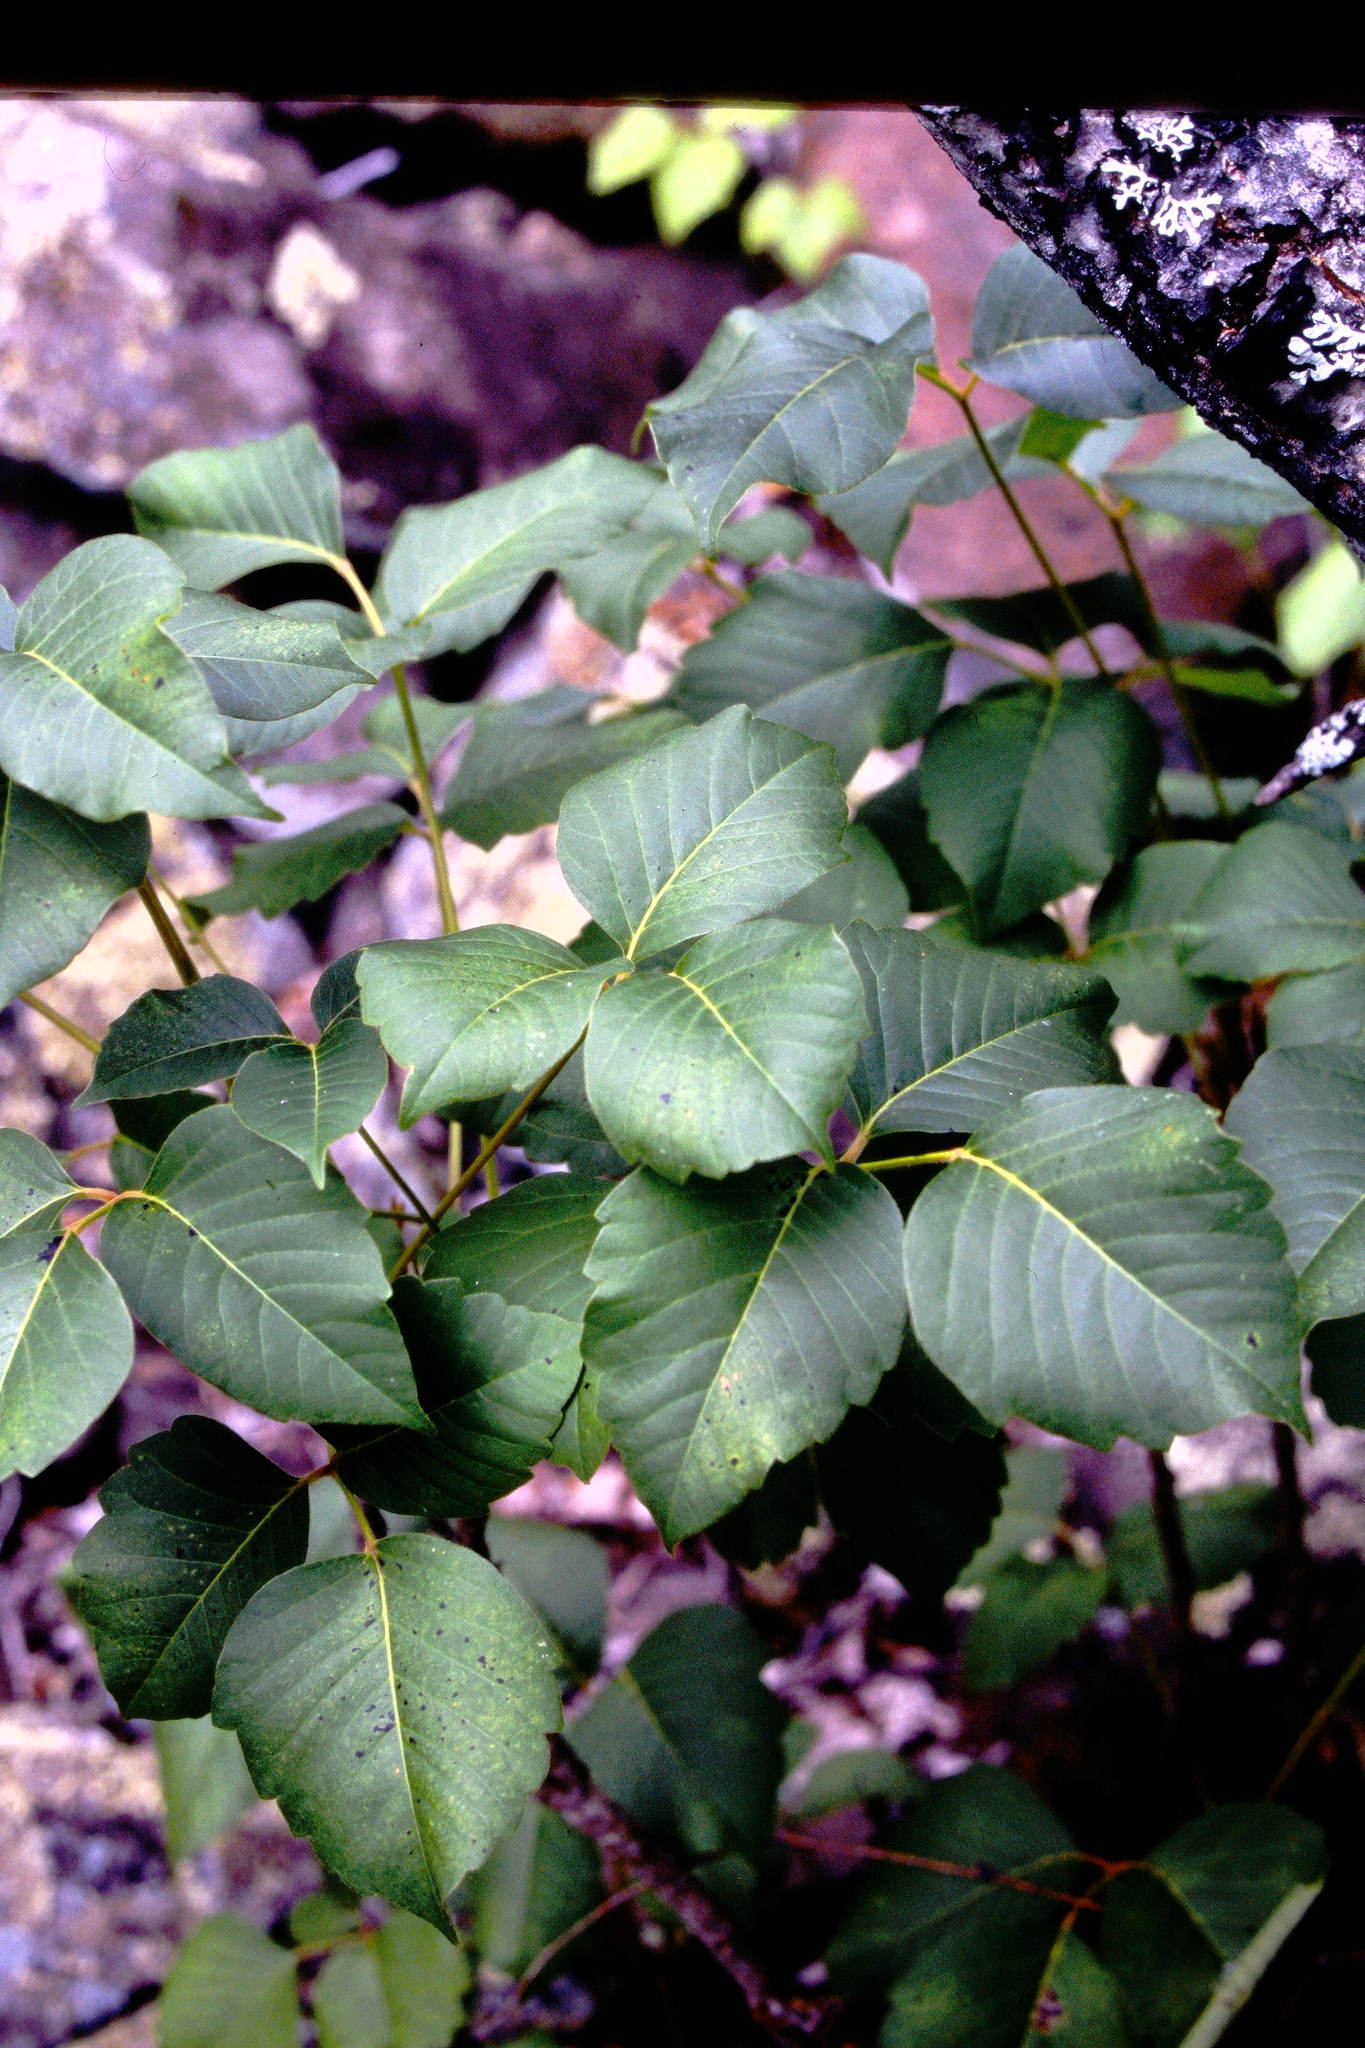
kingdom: Plantae
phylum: Tracheophyta
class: Magnoliopsida
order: Sapindales
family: Anacardiaceae
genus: Toxicodendron
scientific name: Toxicodendron rydbergii
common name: Rydberg's poison-ivy
